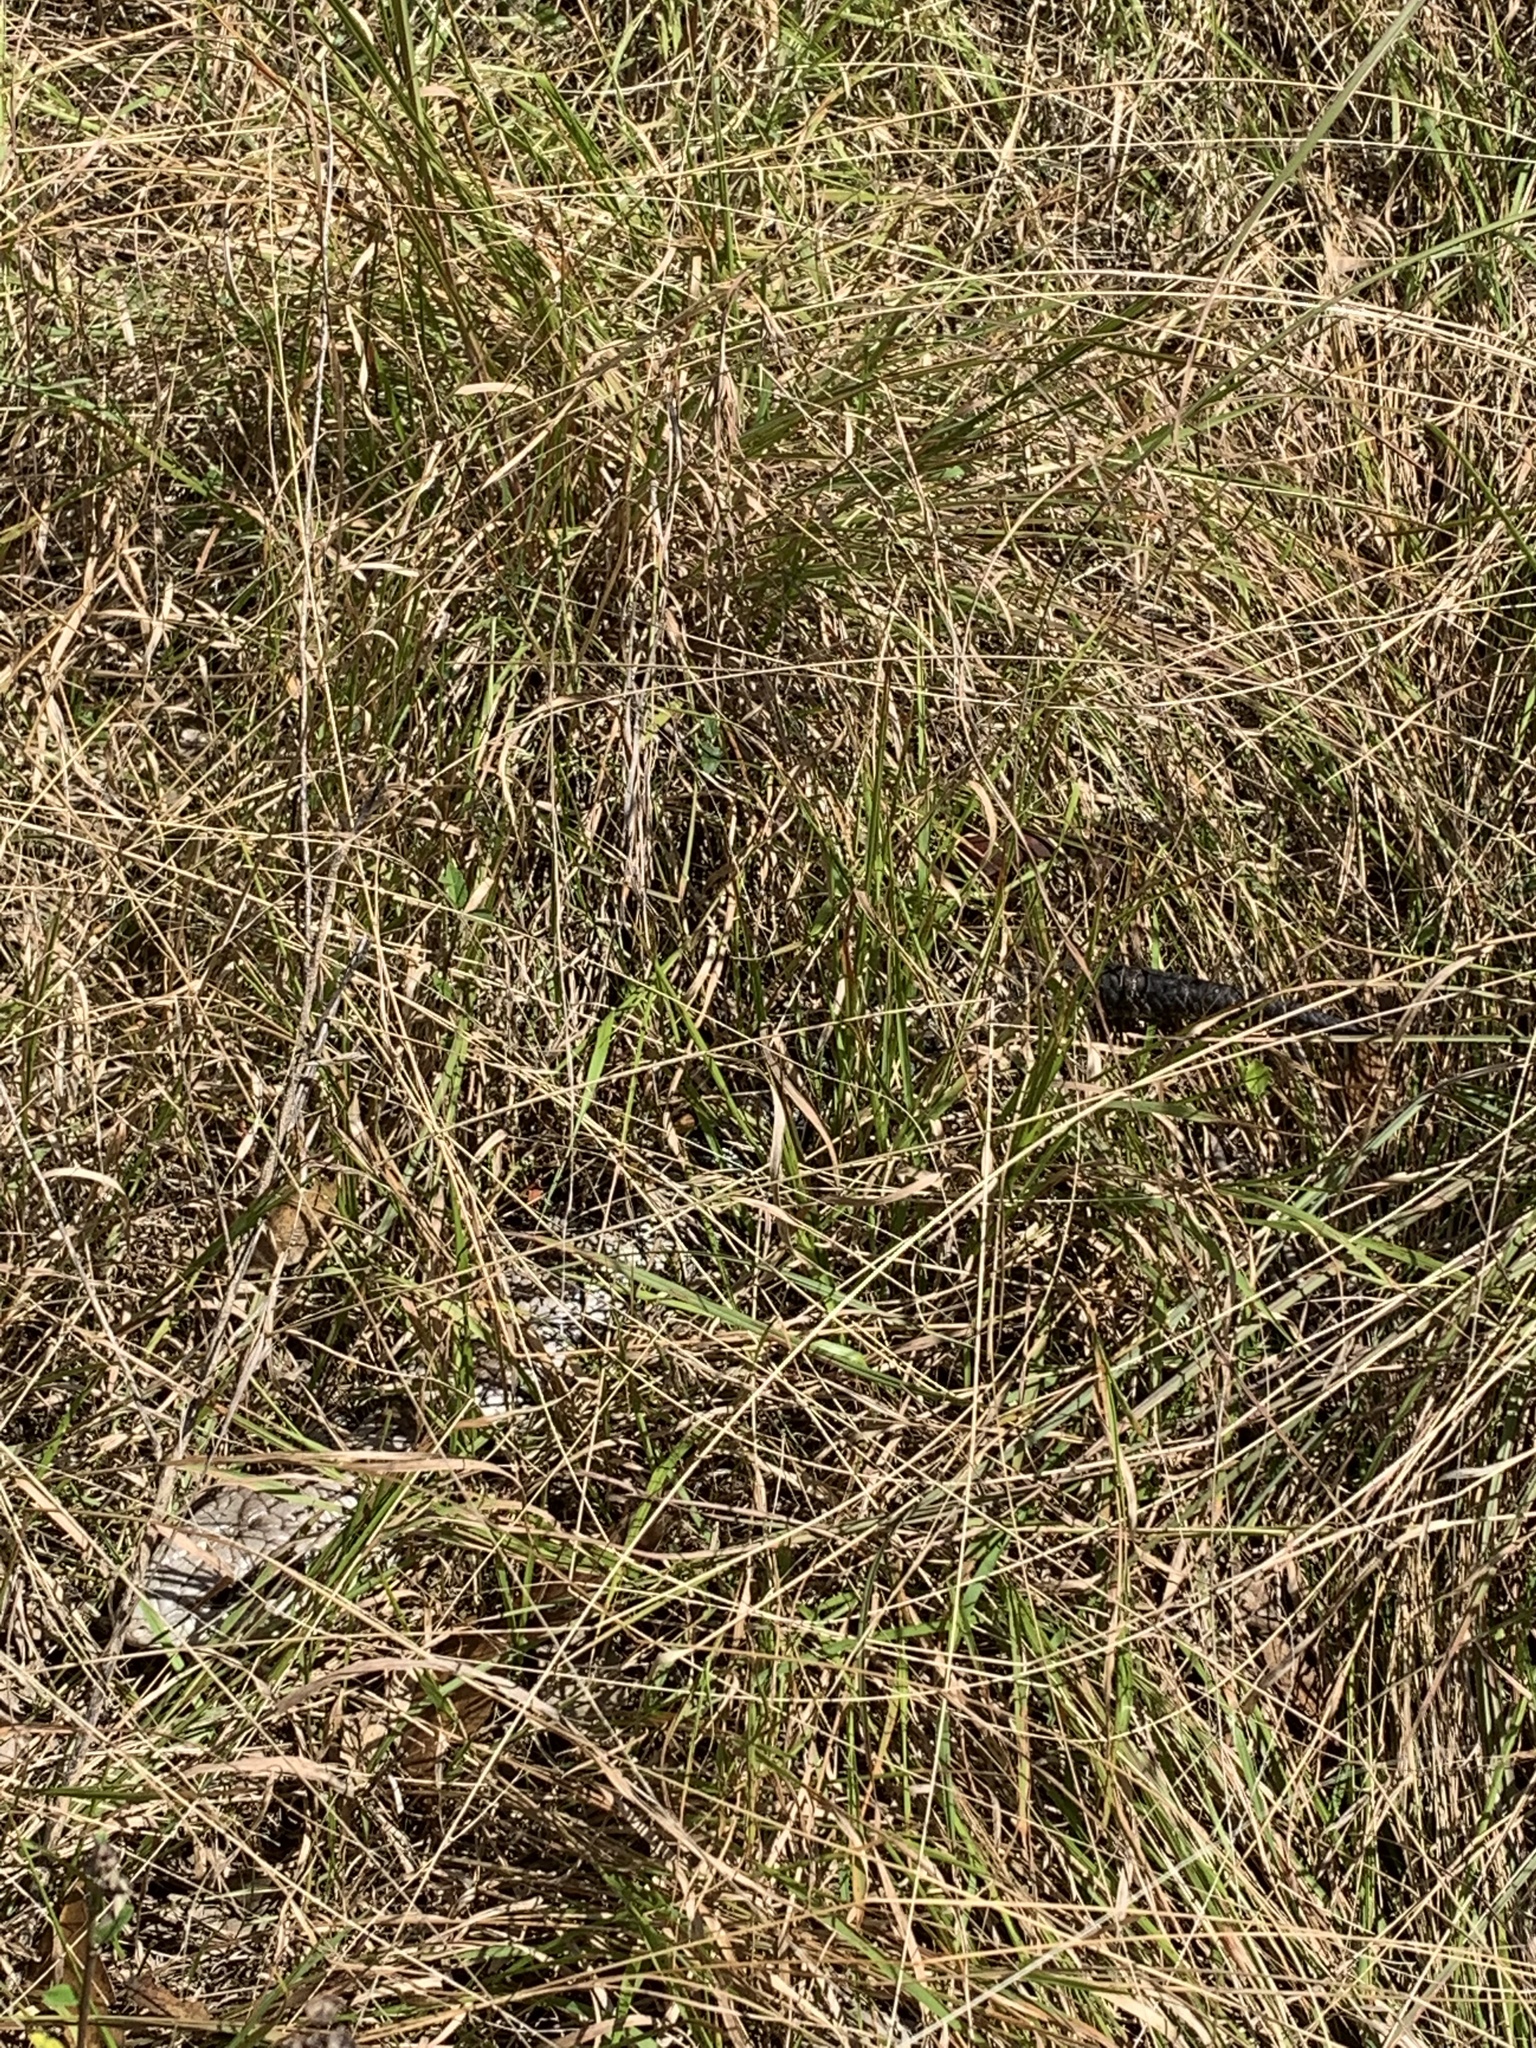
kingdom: Animalia
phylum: Chordata
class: Squamata
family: Scincidae
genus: Tiliqua
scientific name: Tiliqua scincoides
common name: Common bluetongue
